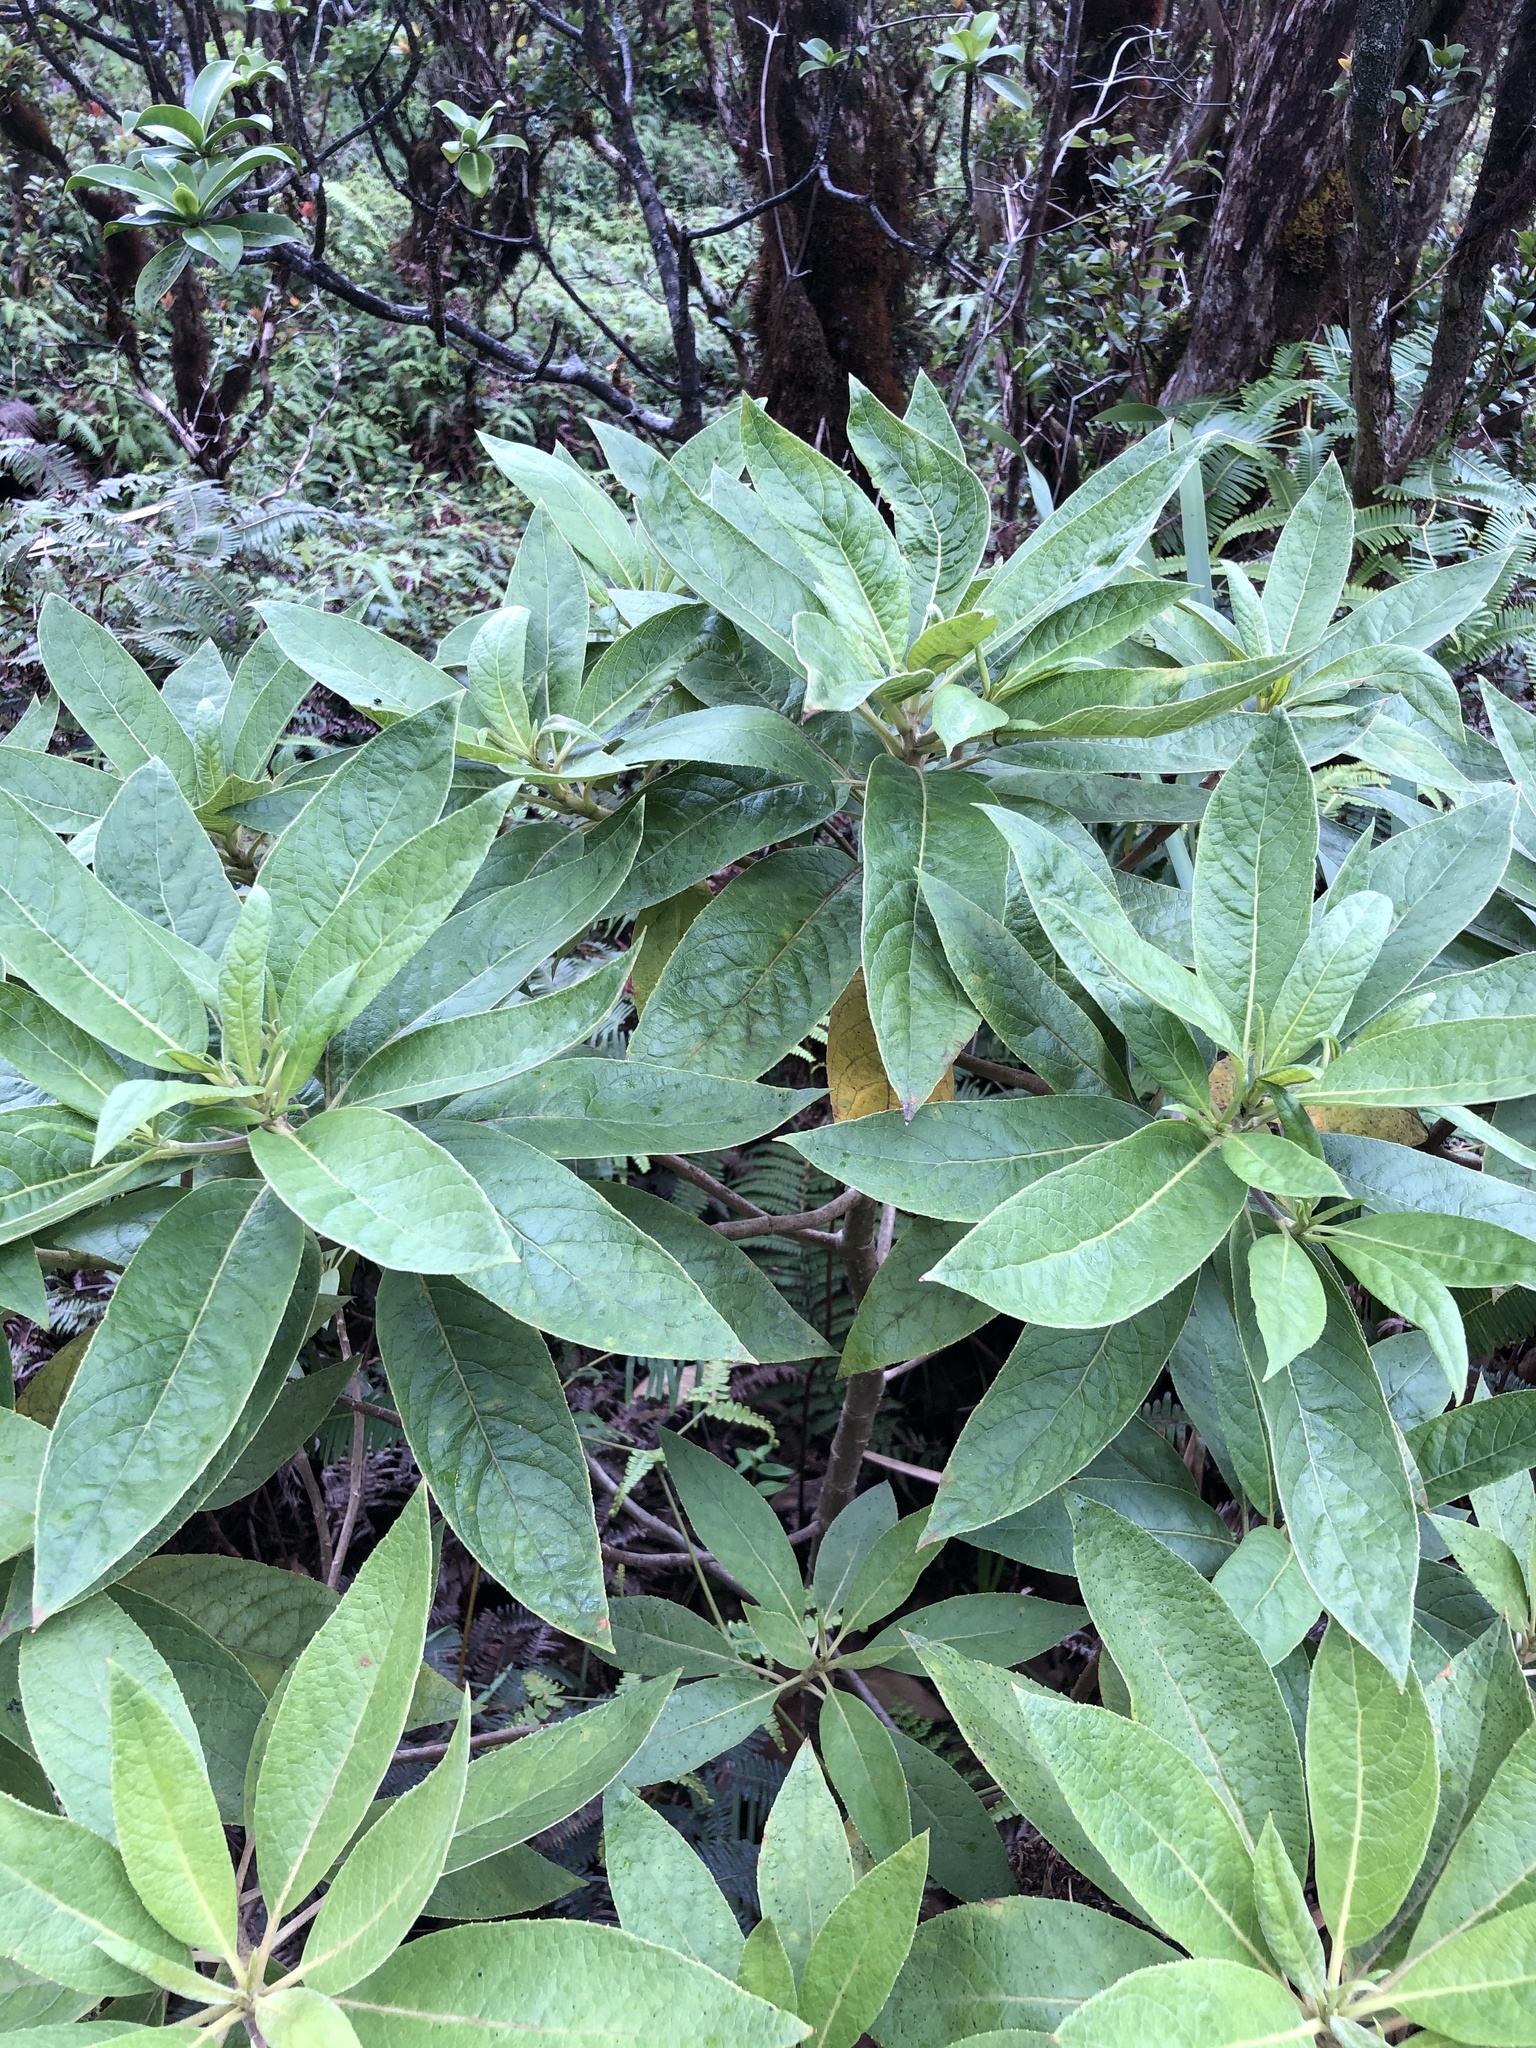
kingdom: Plantae
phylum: Tracheophyta
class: Magnoliopsida
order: Asterales
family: Goodeniaceae
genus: Scaevola
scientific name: Scaevola mollis
